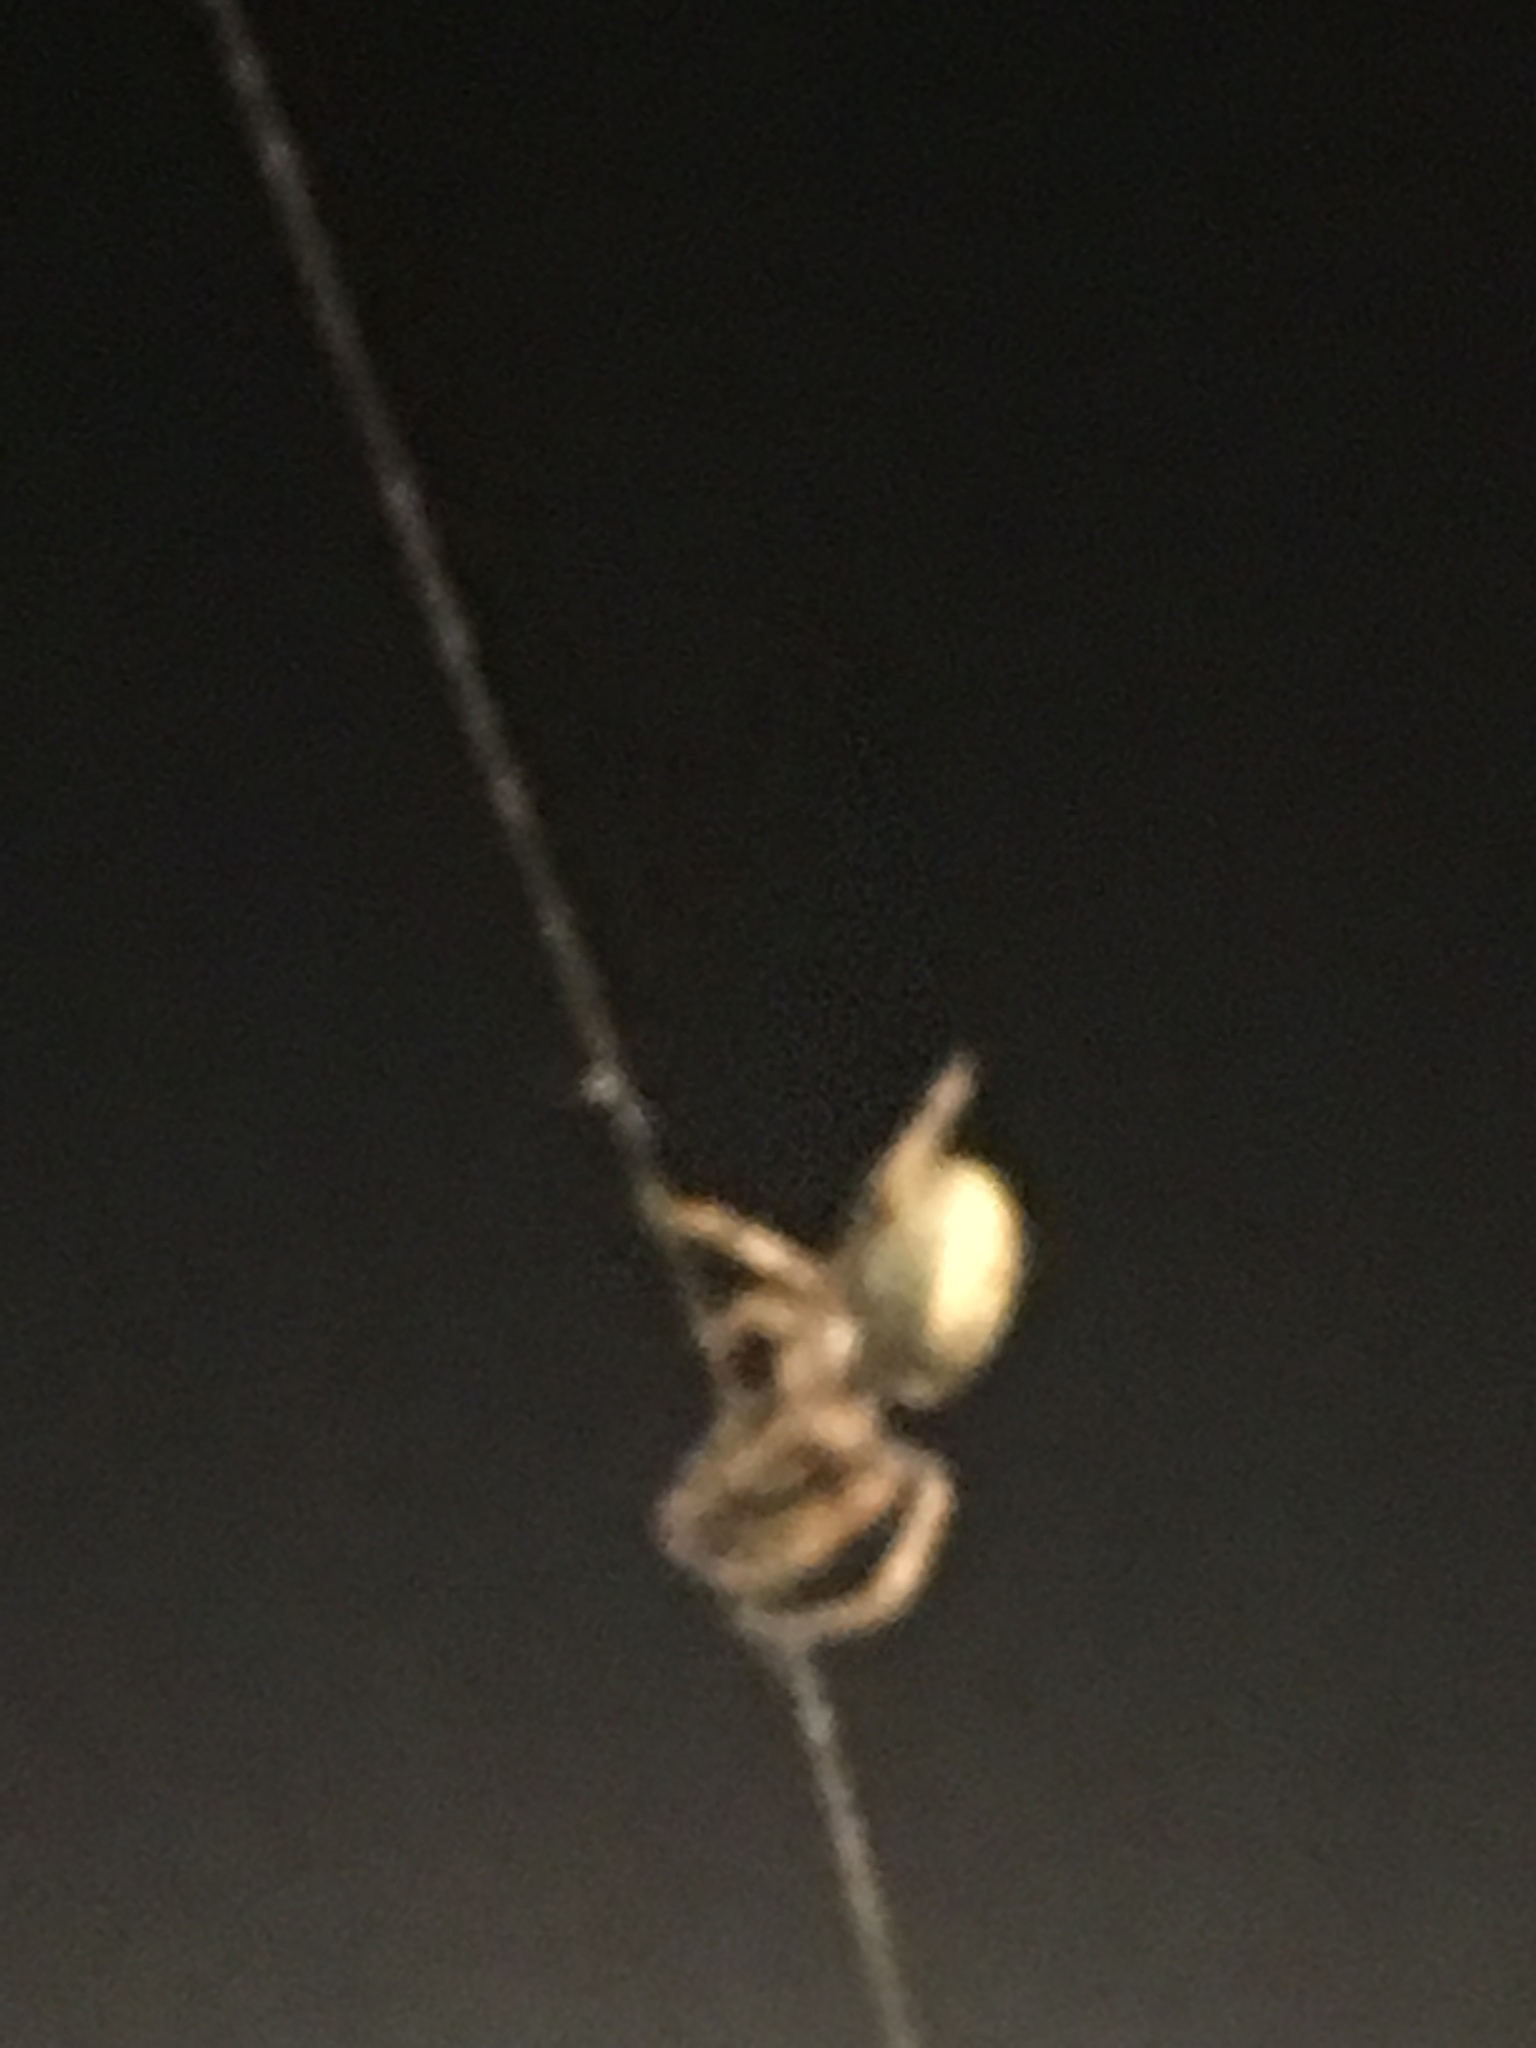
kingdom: Animalia
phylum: Arthropoda
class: Arachnida
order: Araneae
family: Araneidae
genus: Larinioides
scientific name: Larinioides cornutus
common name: Furrow orbweaver
